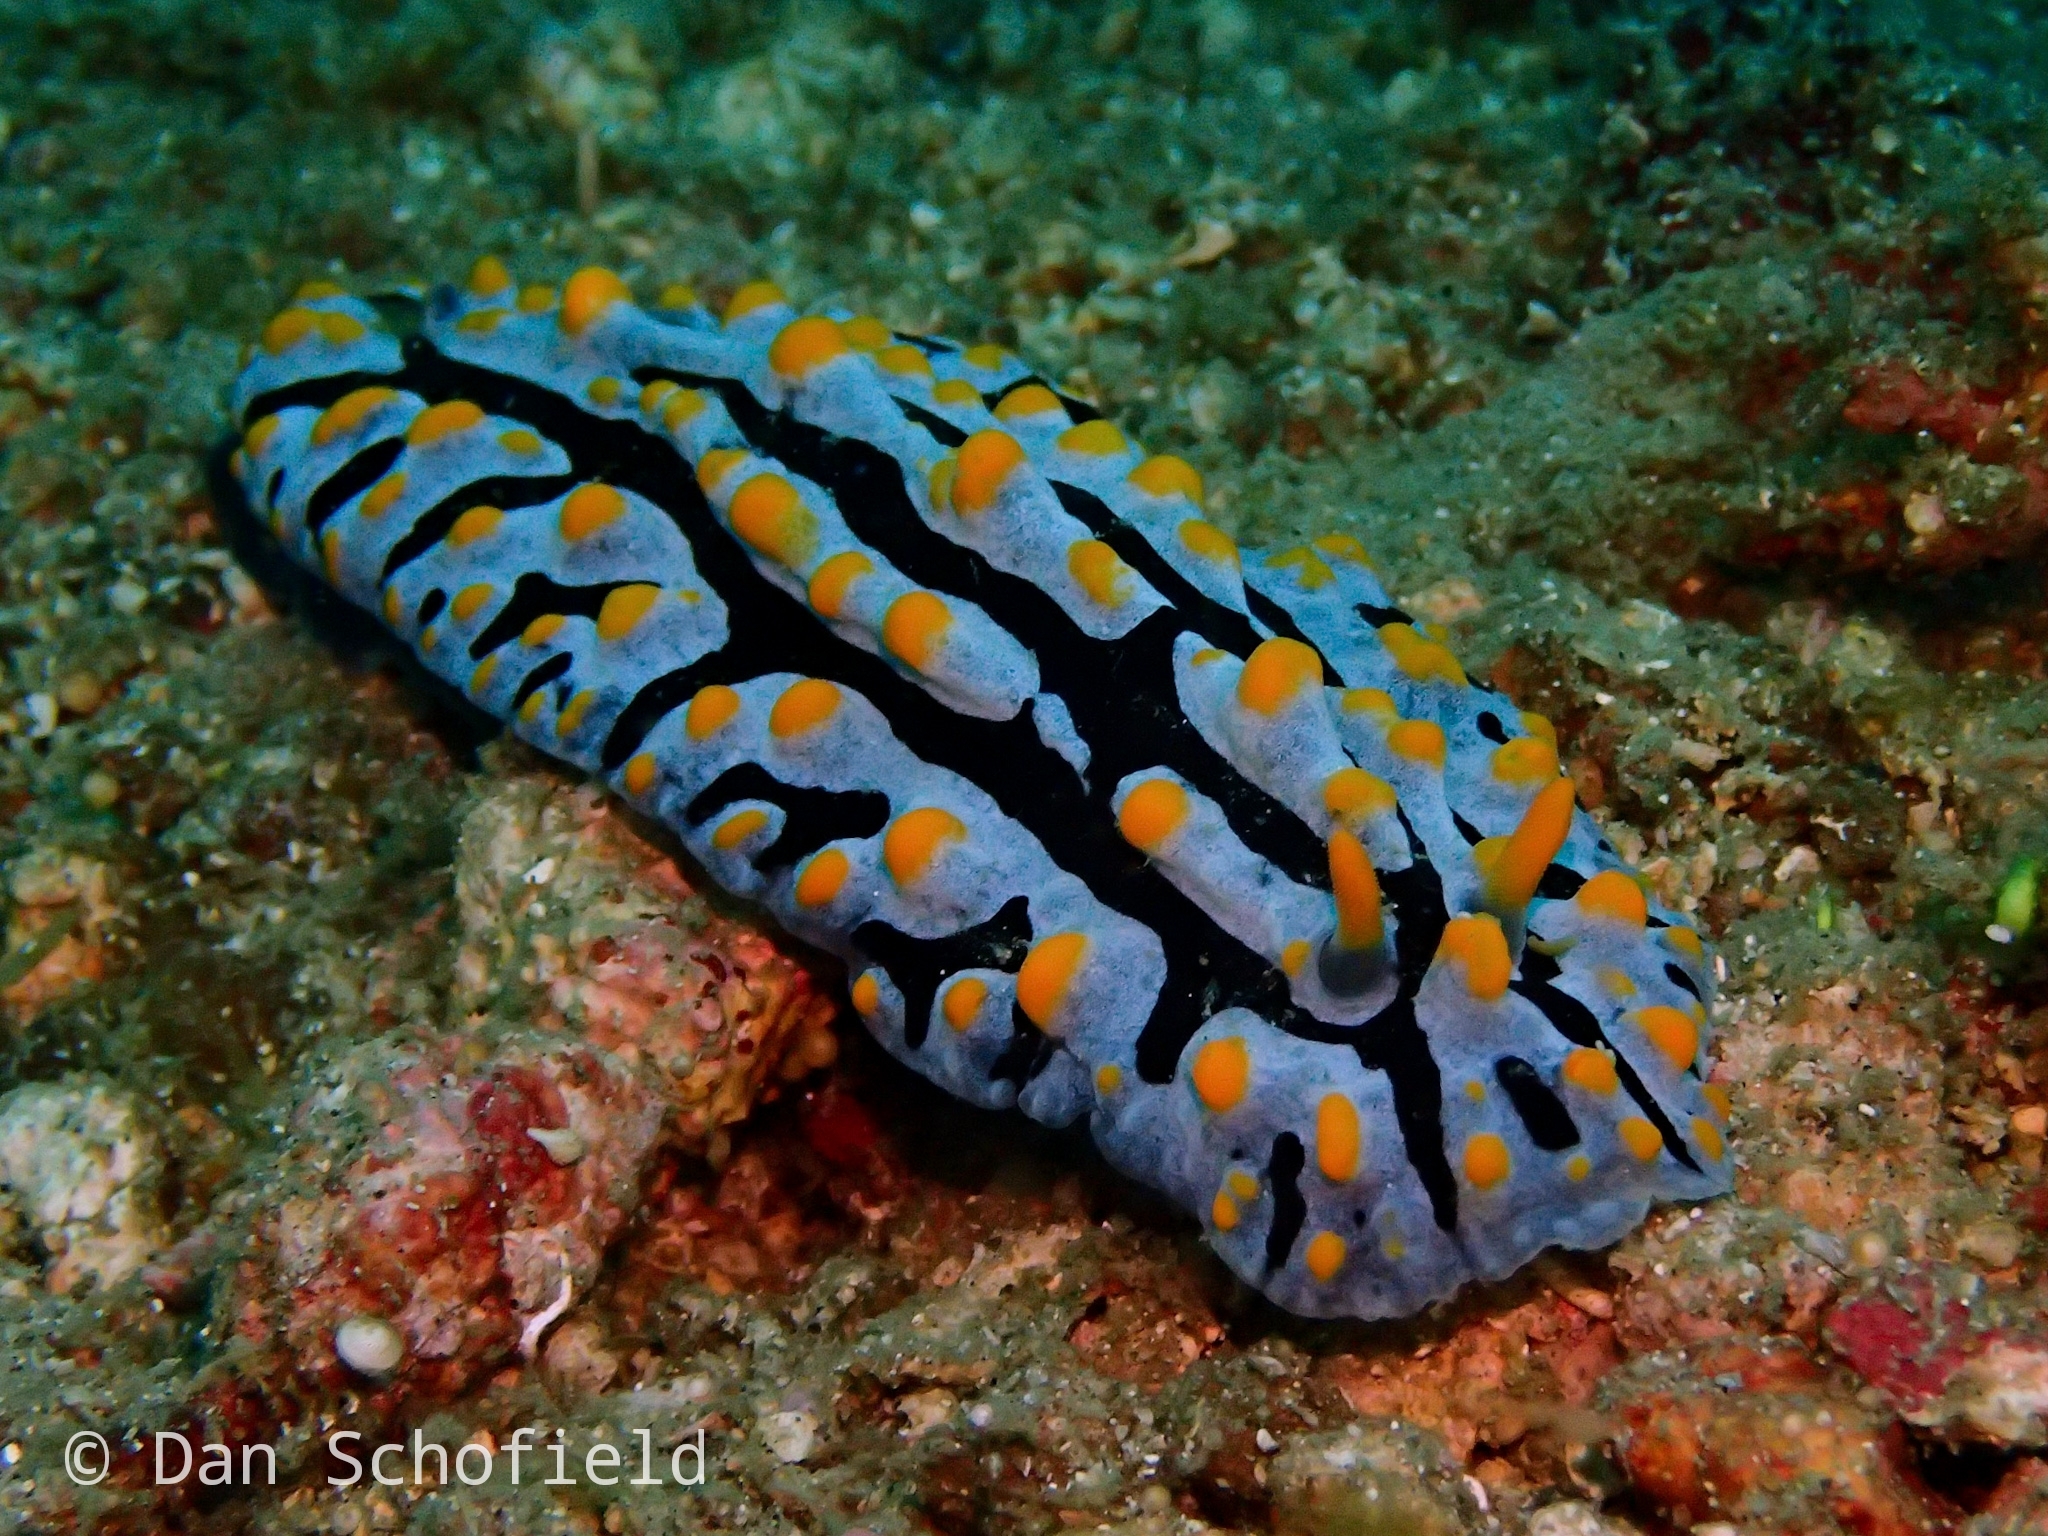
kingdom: Animalia
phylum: Mollusca
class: Gastropoda
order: Nudibranchia
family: Phyllidiidae
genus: Phyllidia
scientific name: Phyllidia varicosa
